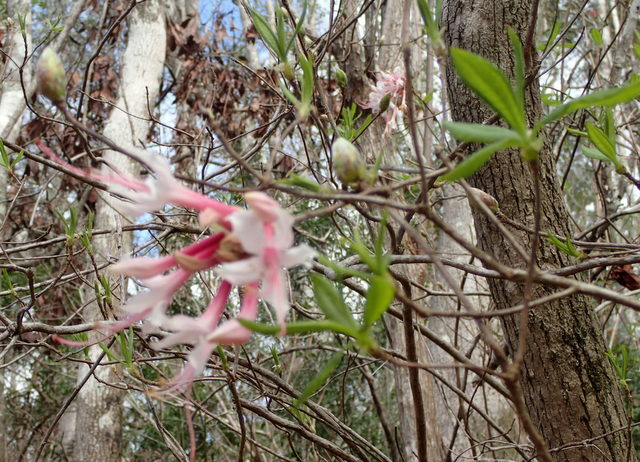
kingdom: Plantae
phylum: Tracheophyta
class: Magnoliopsida
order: Ericales
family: Ericaceae
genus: Rhododendron
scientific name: Rhododendron canescens
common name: Mountain azalea
